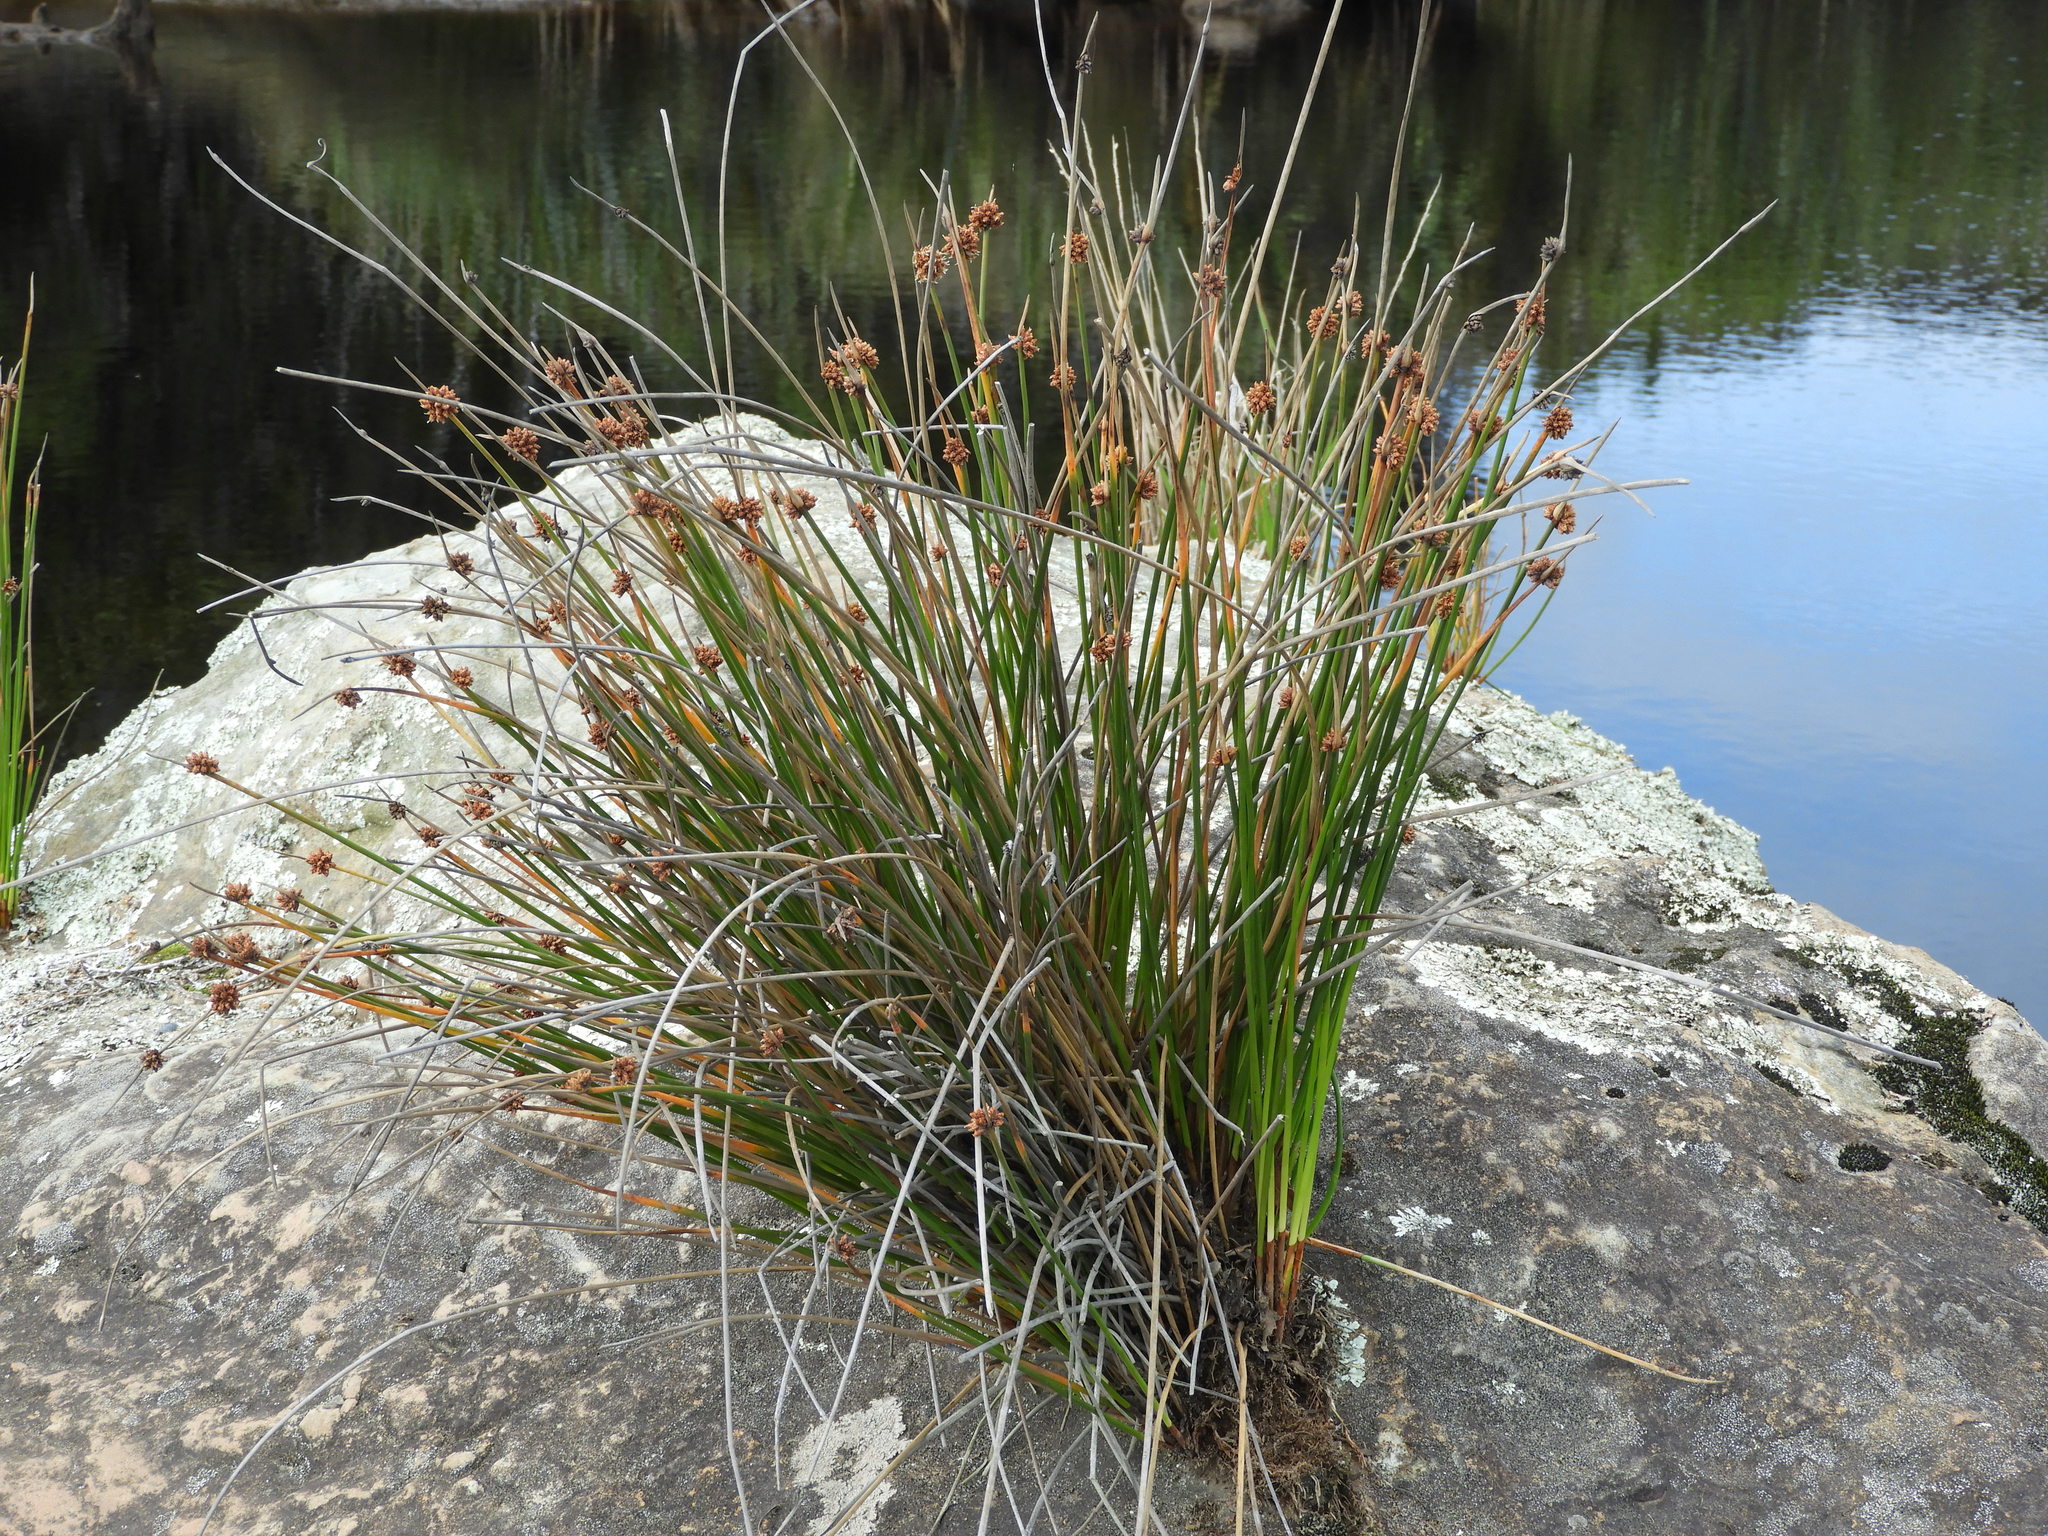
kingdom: Plantae
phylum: Tracheophyta
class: Liliopsida
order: Poales
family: Cyperaceae
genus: Ficinia
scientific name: Ficinia nodosa
